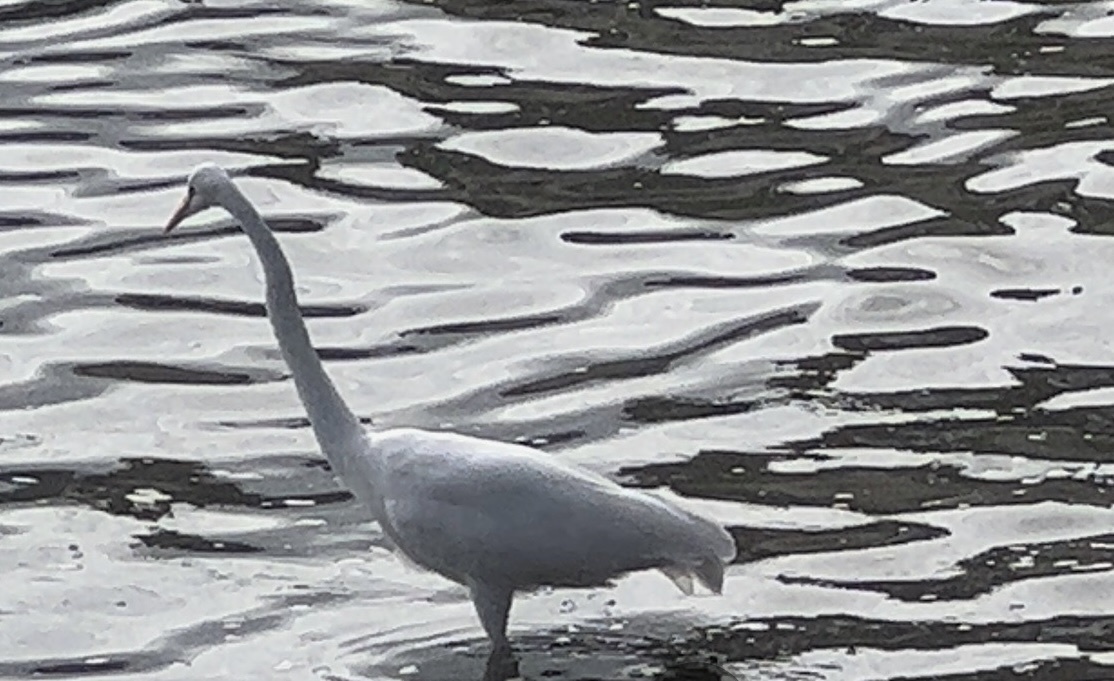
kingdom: Animalia
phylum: Chordata
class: Aves
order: Pelecaniformes
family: Ardeidae
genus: Ardea
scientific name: Ardea alba
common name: Great egret
